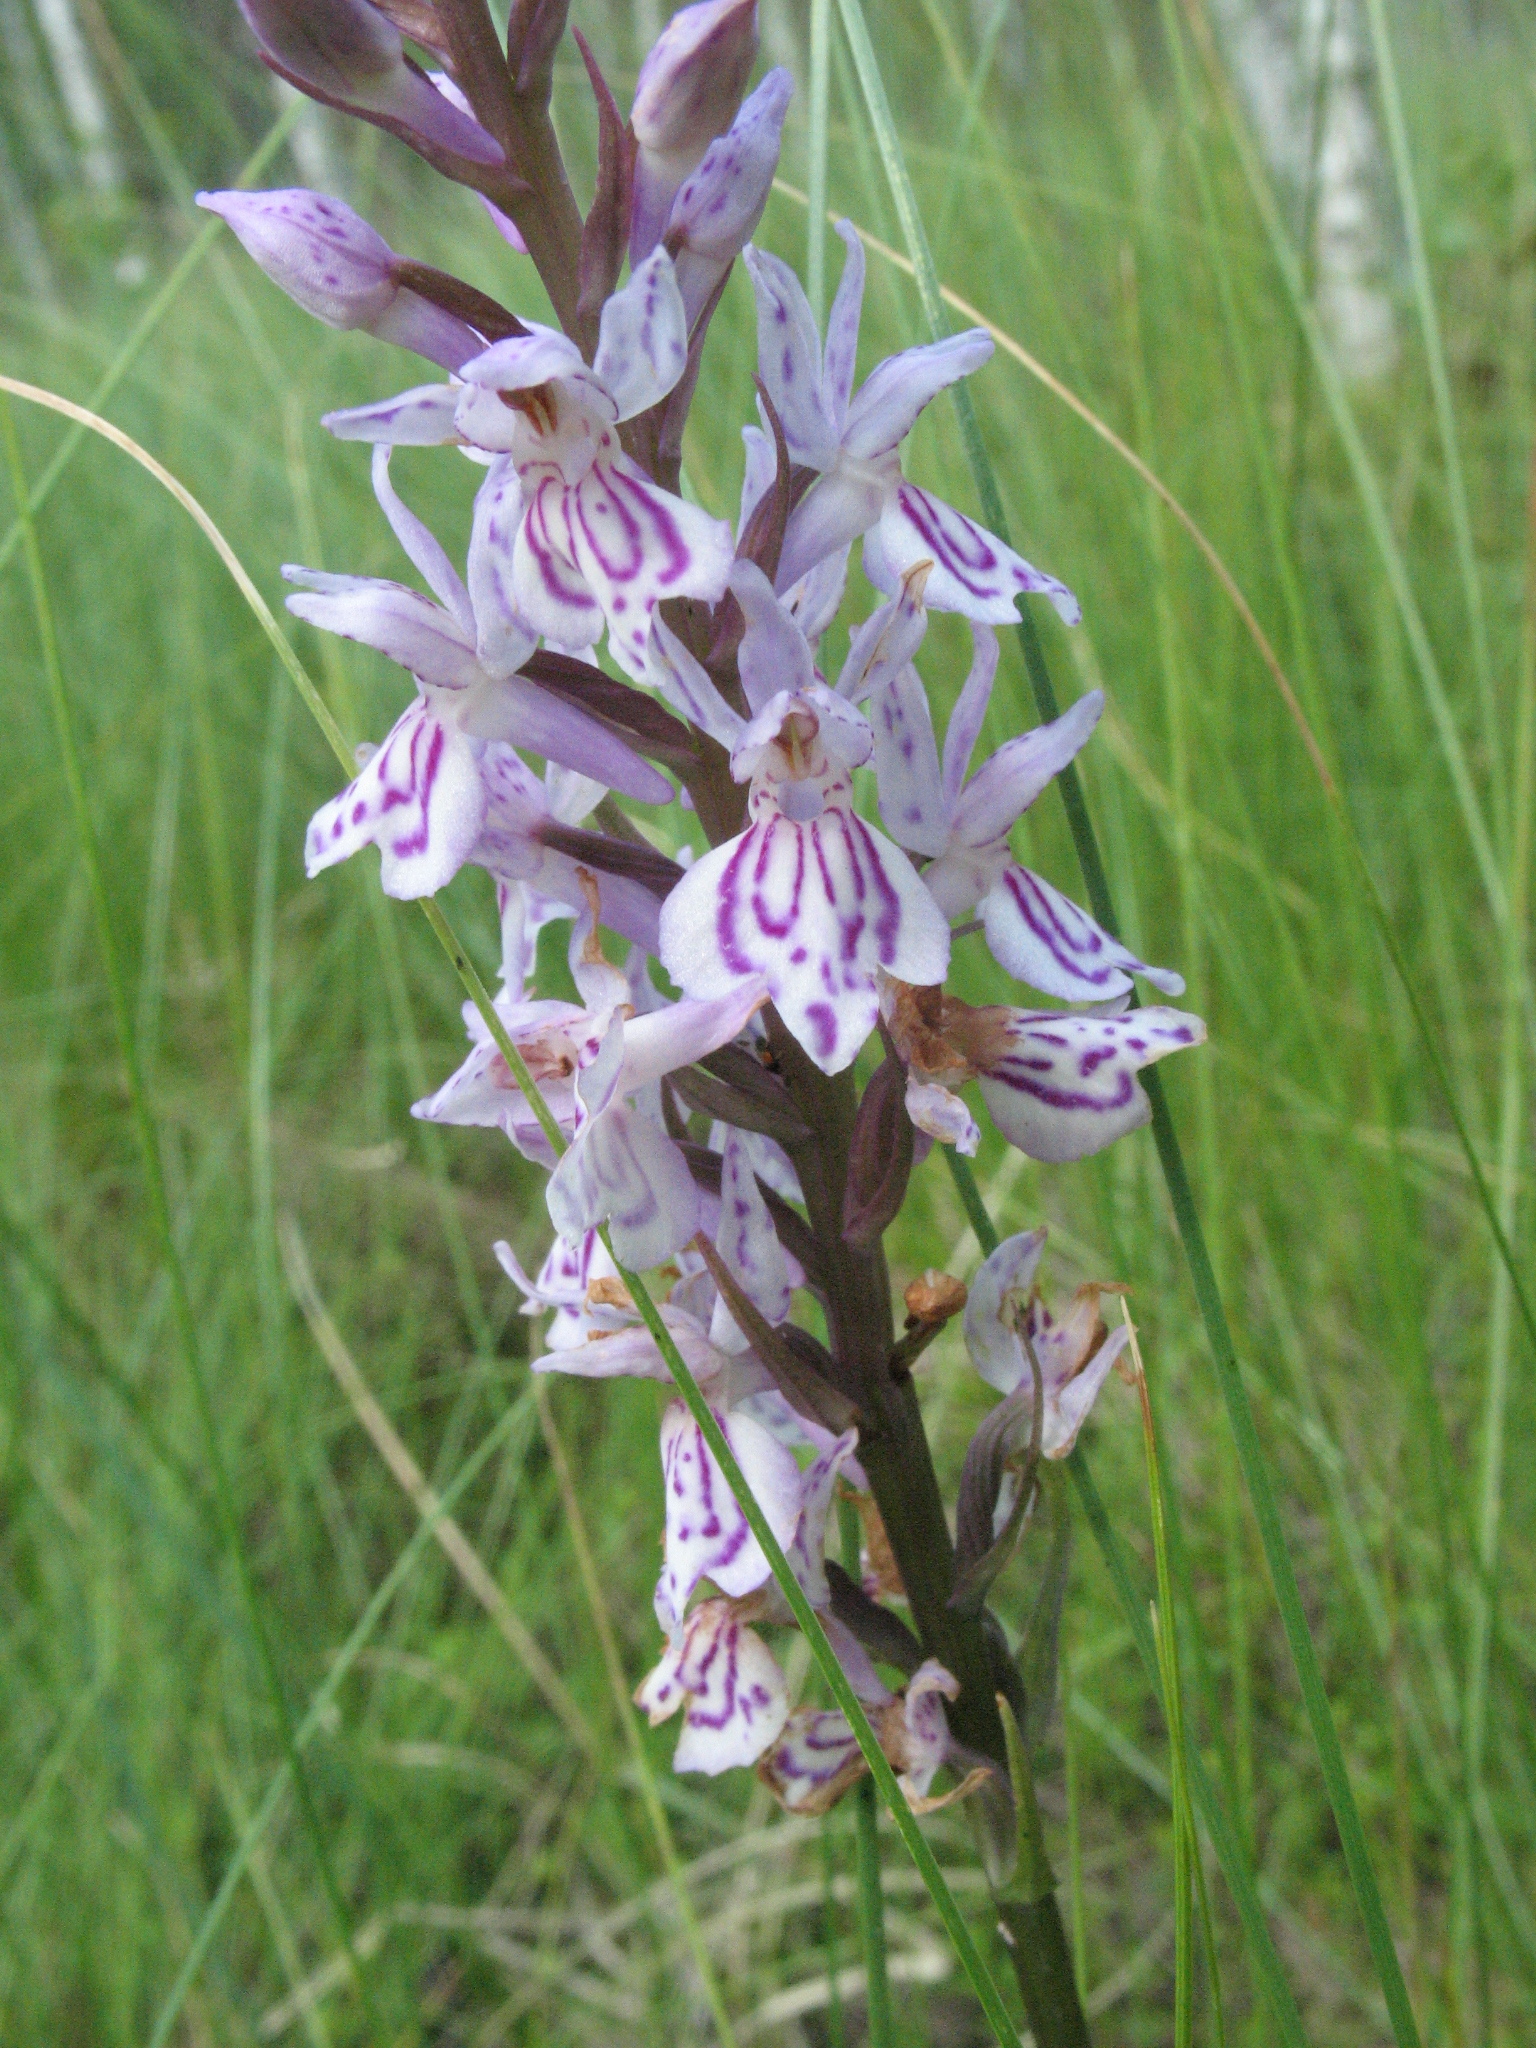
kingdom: Plantae
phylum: Tracheophyta
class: Liliopsida
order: Asparagales
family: Orchidaceae
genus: Dactylorhiza
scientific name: Dactylorhiza maculata
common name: Heath spotted-orchid
